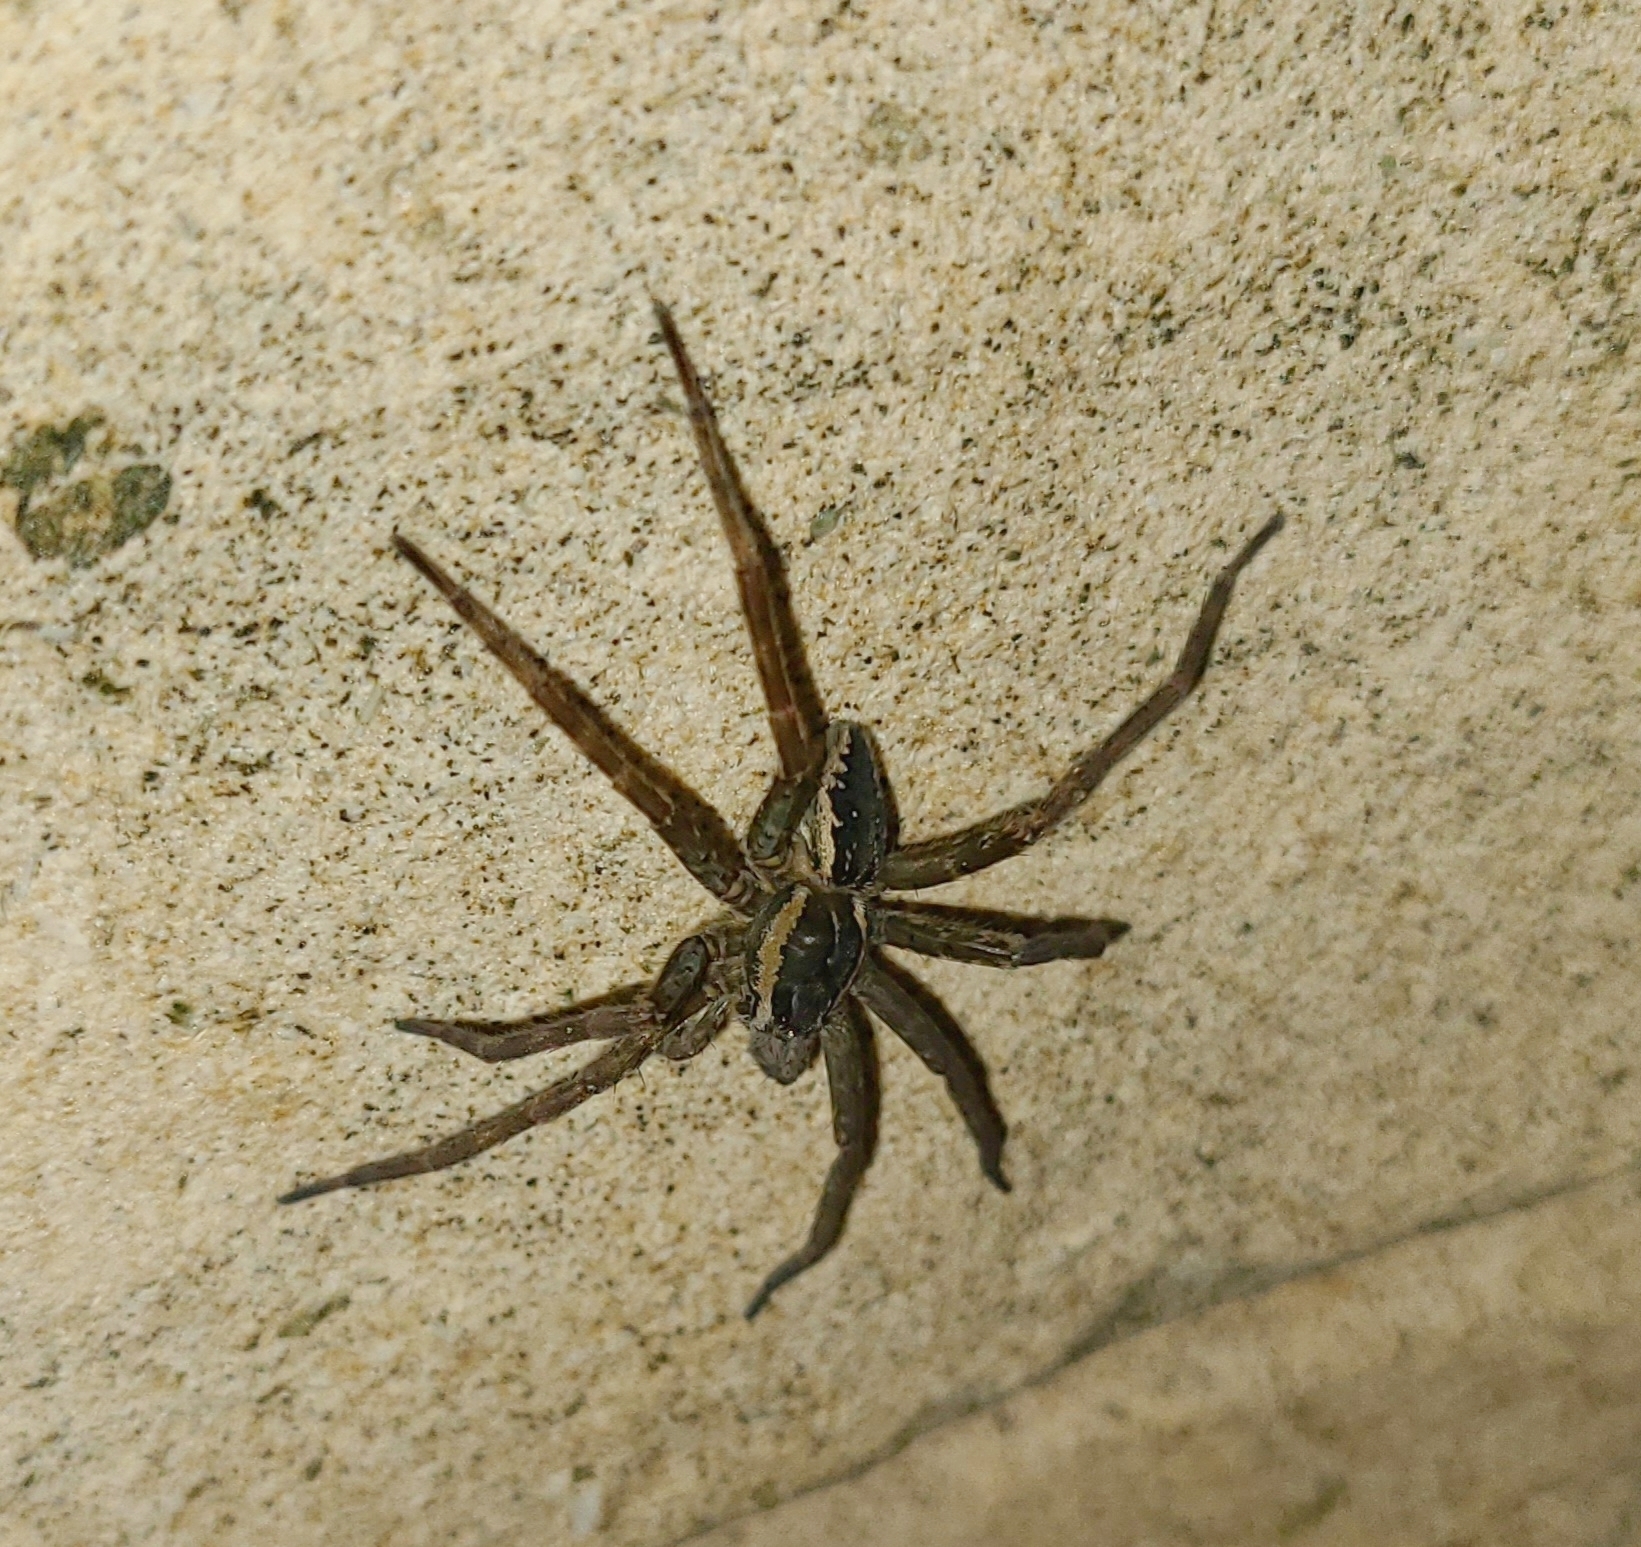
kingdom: Animalia
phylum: Arthropoda
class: Arachnida
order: Araneae
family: Pisauridae
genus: Dolomedes
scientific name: Dolomedes dondalei
